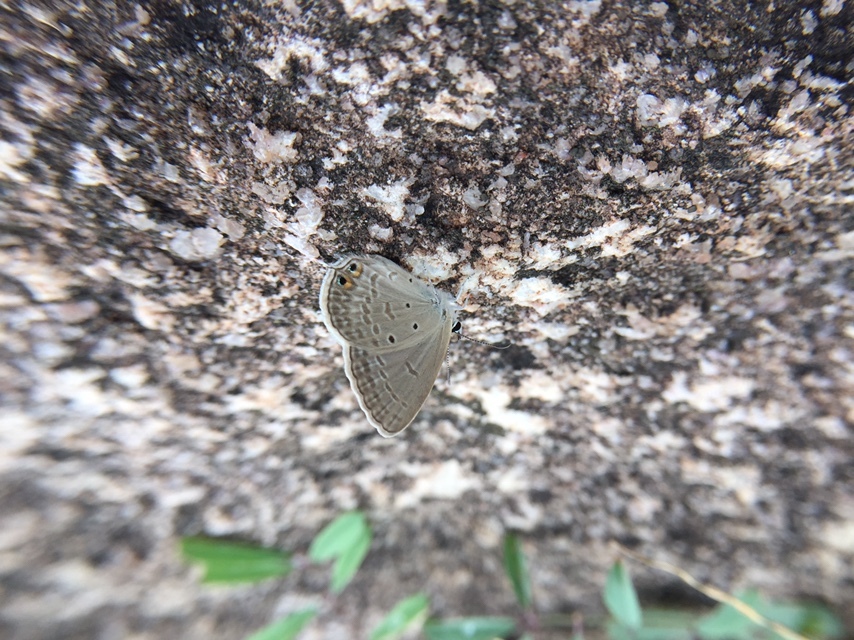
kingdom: Animalia
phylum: Arthropoda
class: Insecta
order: Lepidoptera
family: Lycaenidae
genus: Euchrysops
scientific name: Euchrysops cnejus
